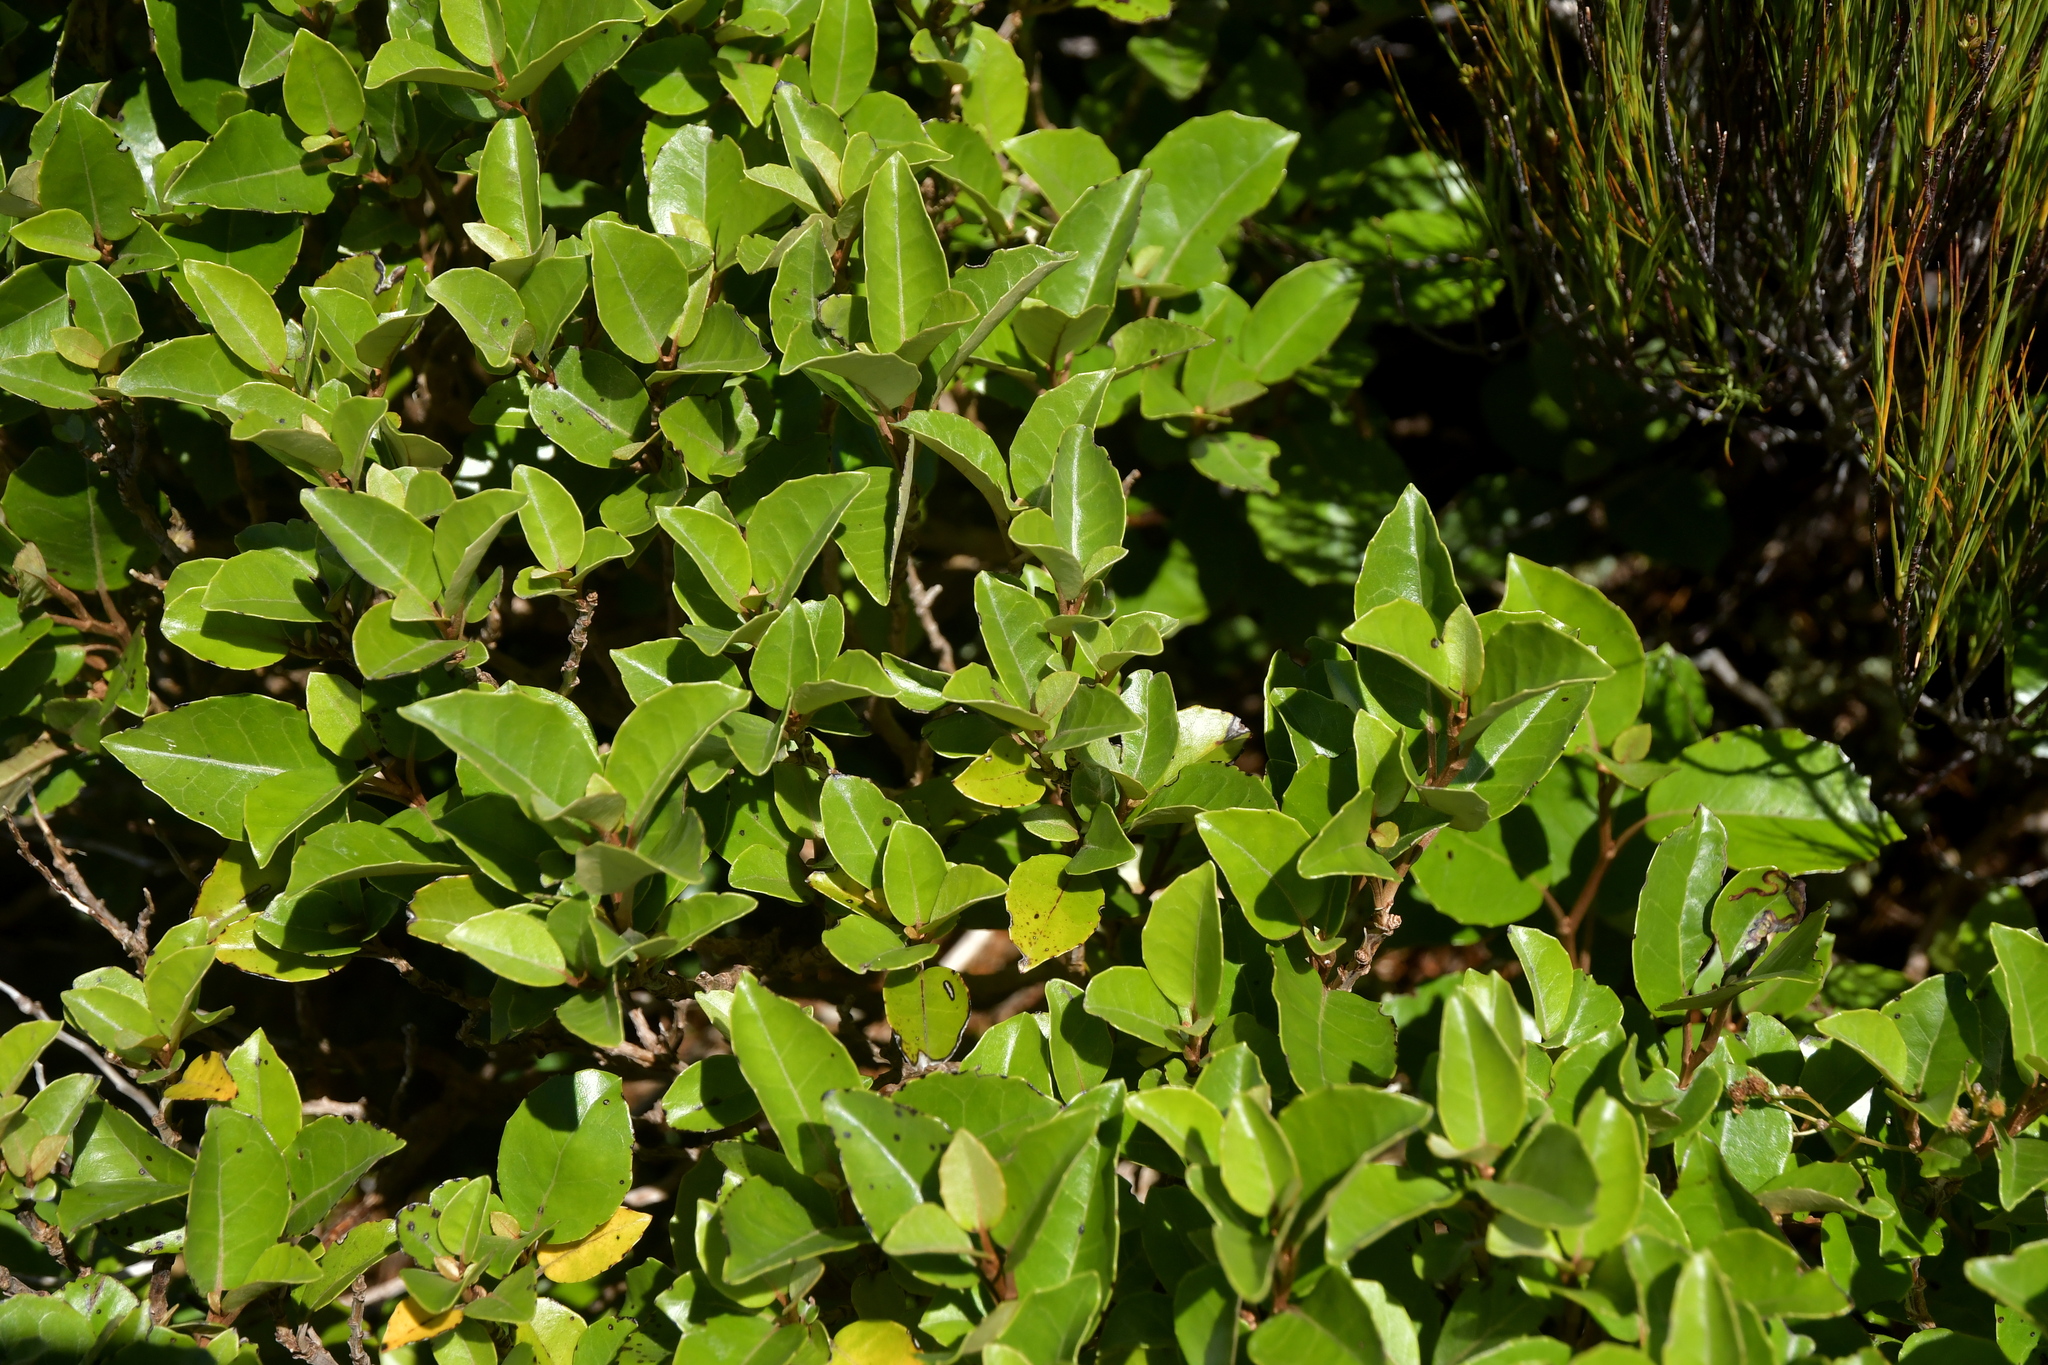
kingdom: Plantae
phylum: Tracheophyta
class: Magnoliopsida
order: Asterales
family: Asteraceae
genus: Olearia
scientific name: Olearia arborescens
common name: Glossy tree daisy
